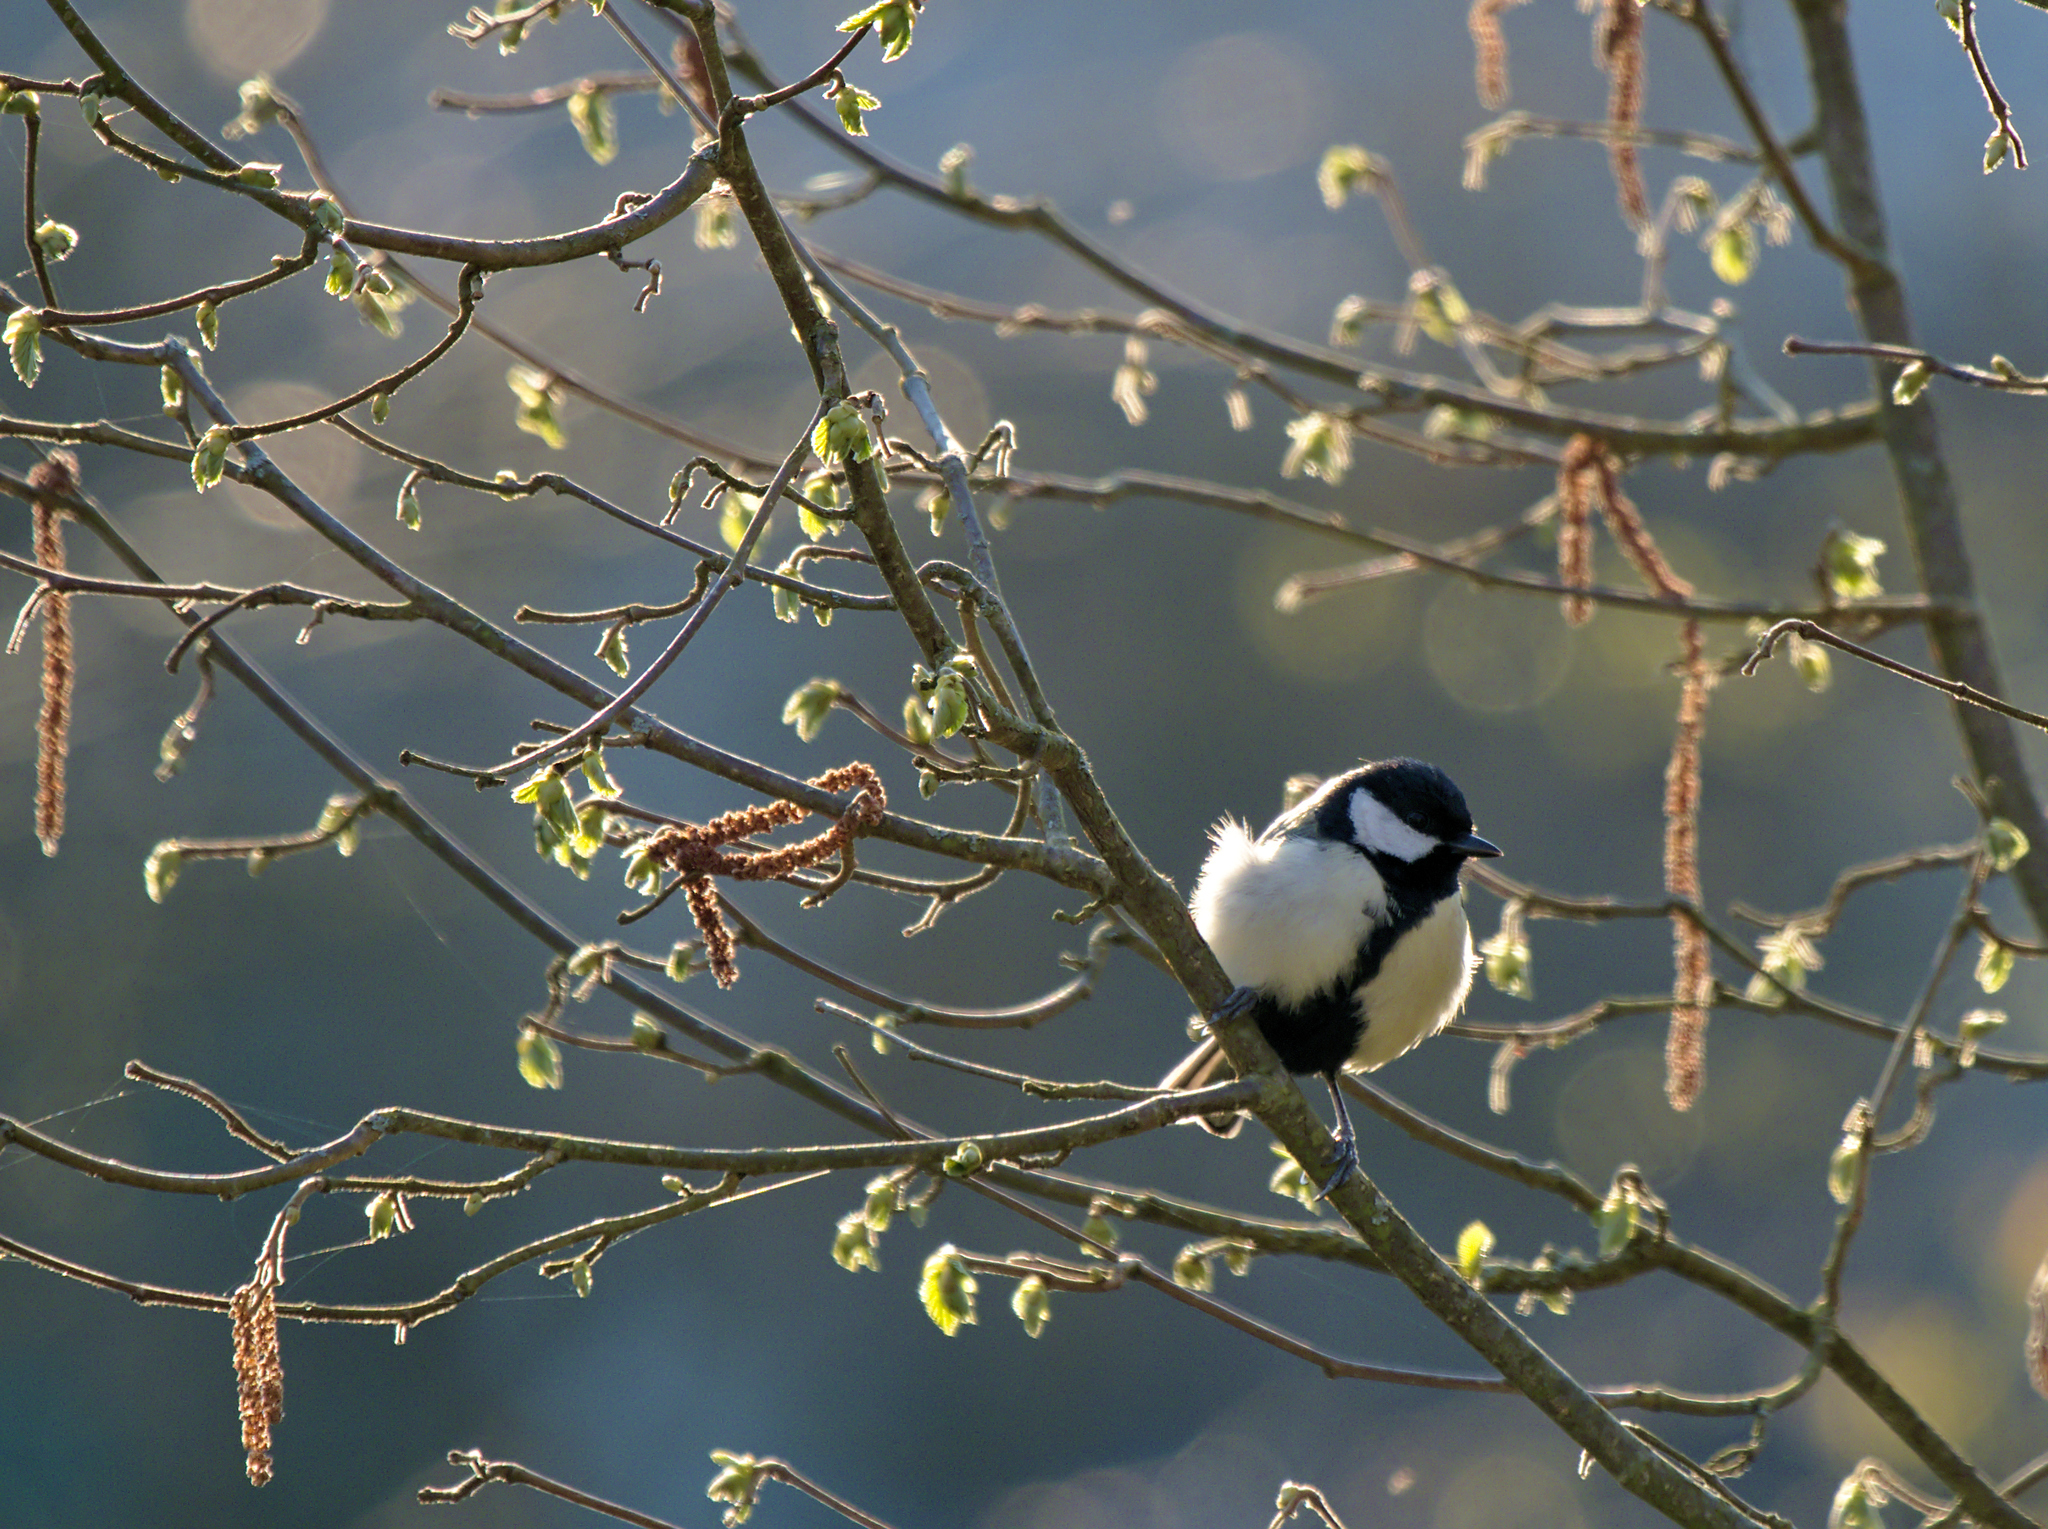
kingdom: Animalia
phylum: Chordata
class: Aves
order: Passeriformes
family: Paridae
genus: Parus
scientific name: Parus major
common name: Great tit
